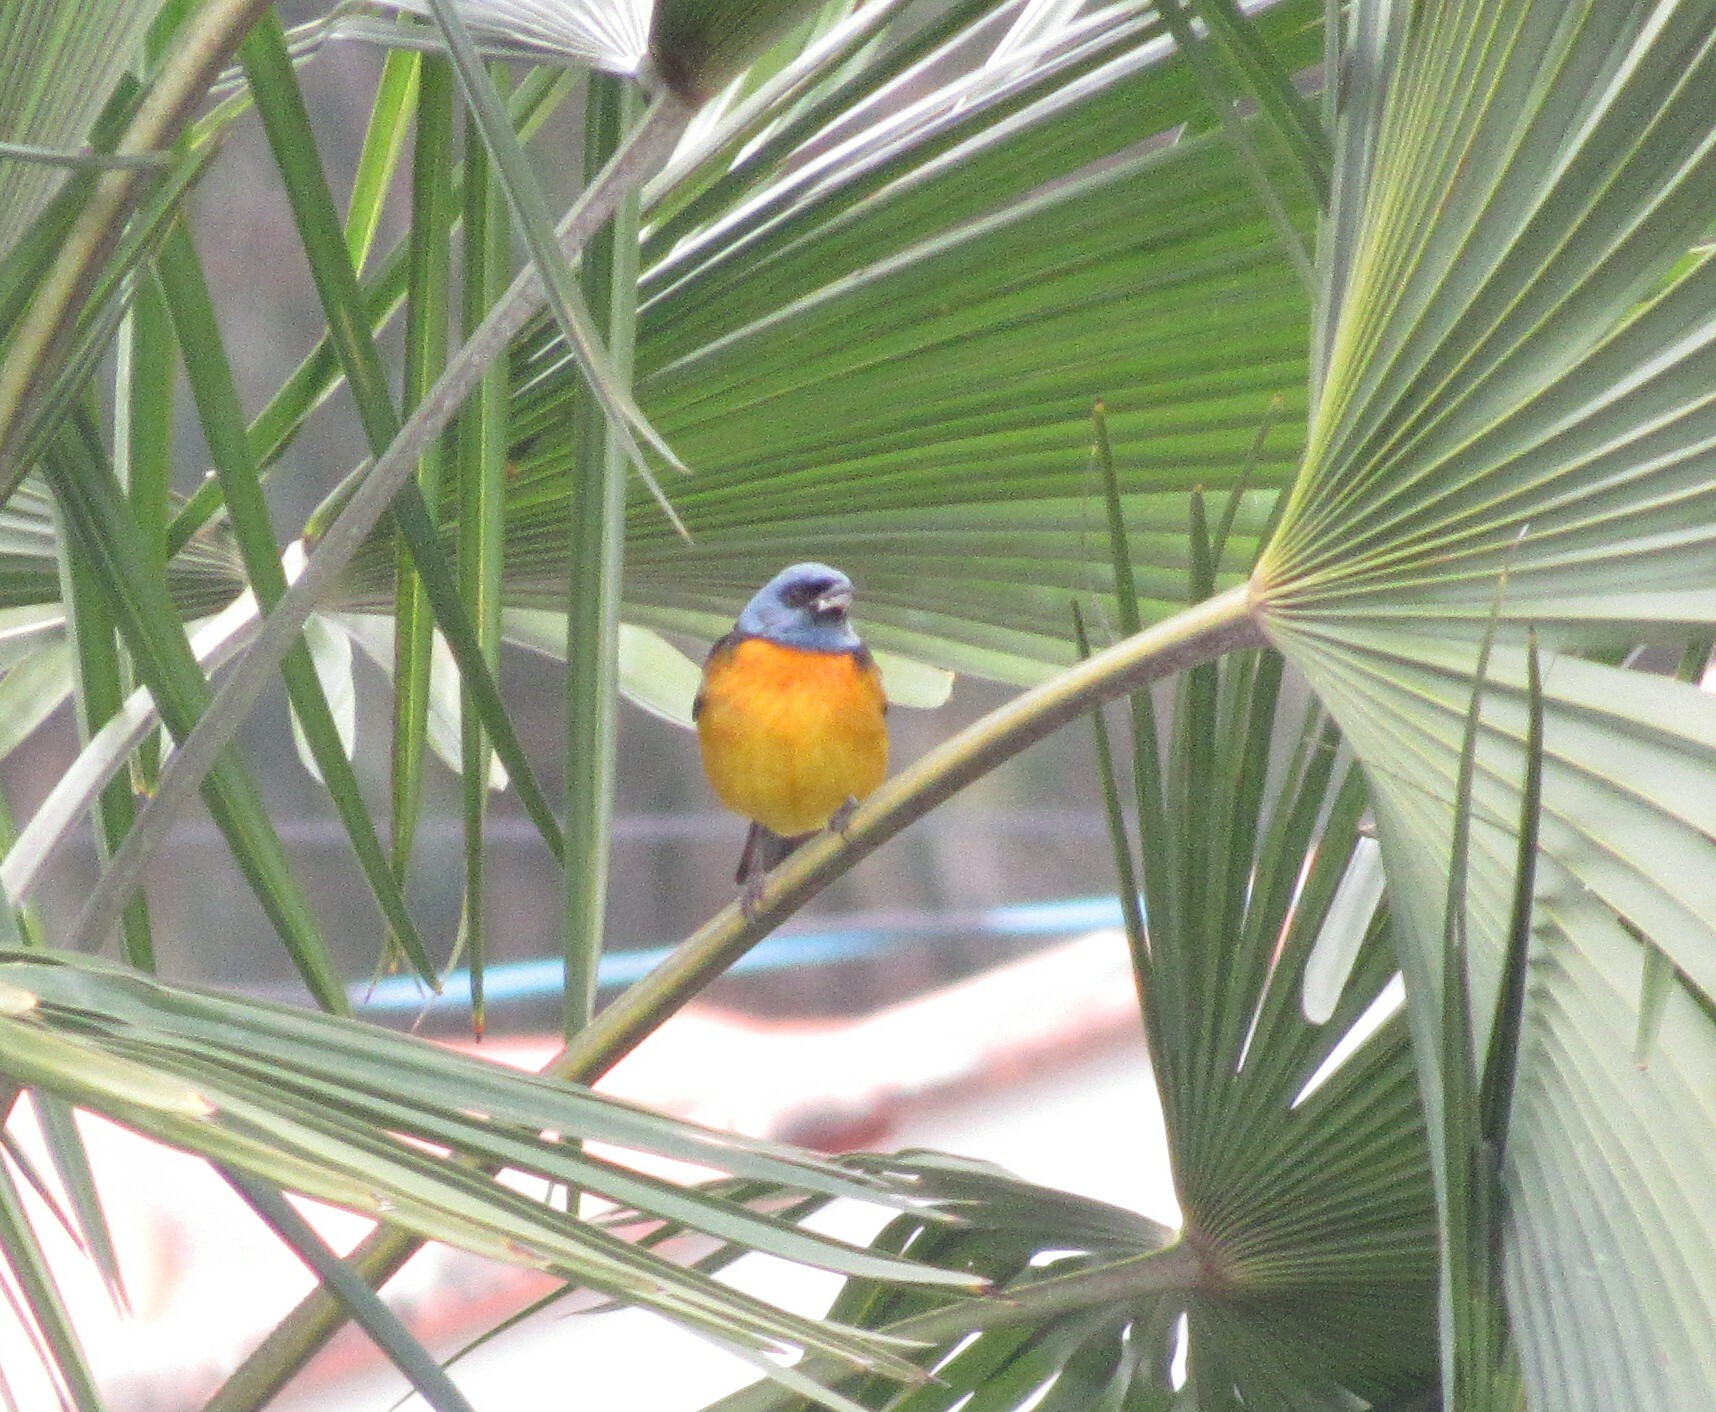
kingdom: Animalia
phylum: Chordata
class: Aves
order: Passeriformes
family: Thraupidae
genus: Rauenia
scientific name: Rauenia bonariensis
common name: Blue-and-yellow tanager
